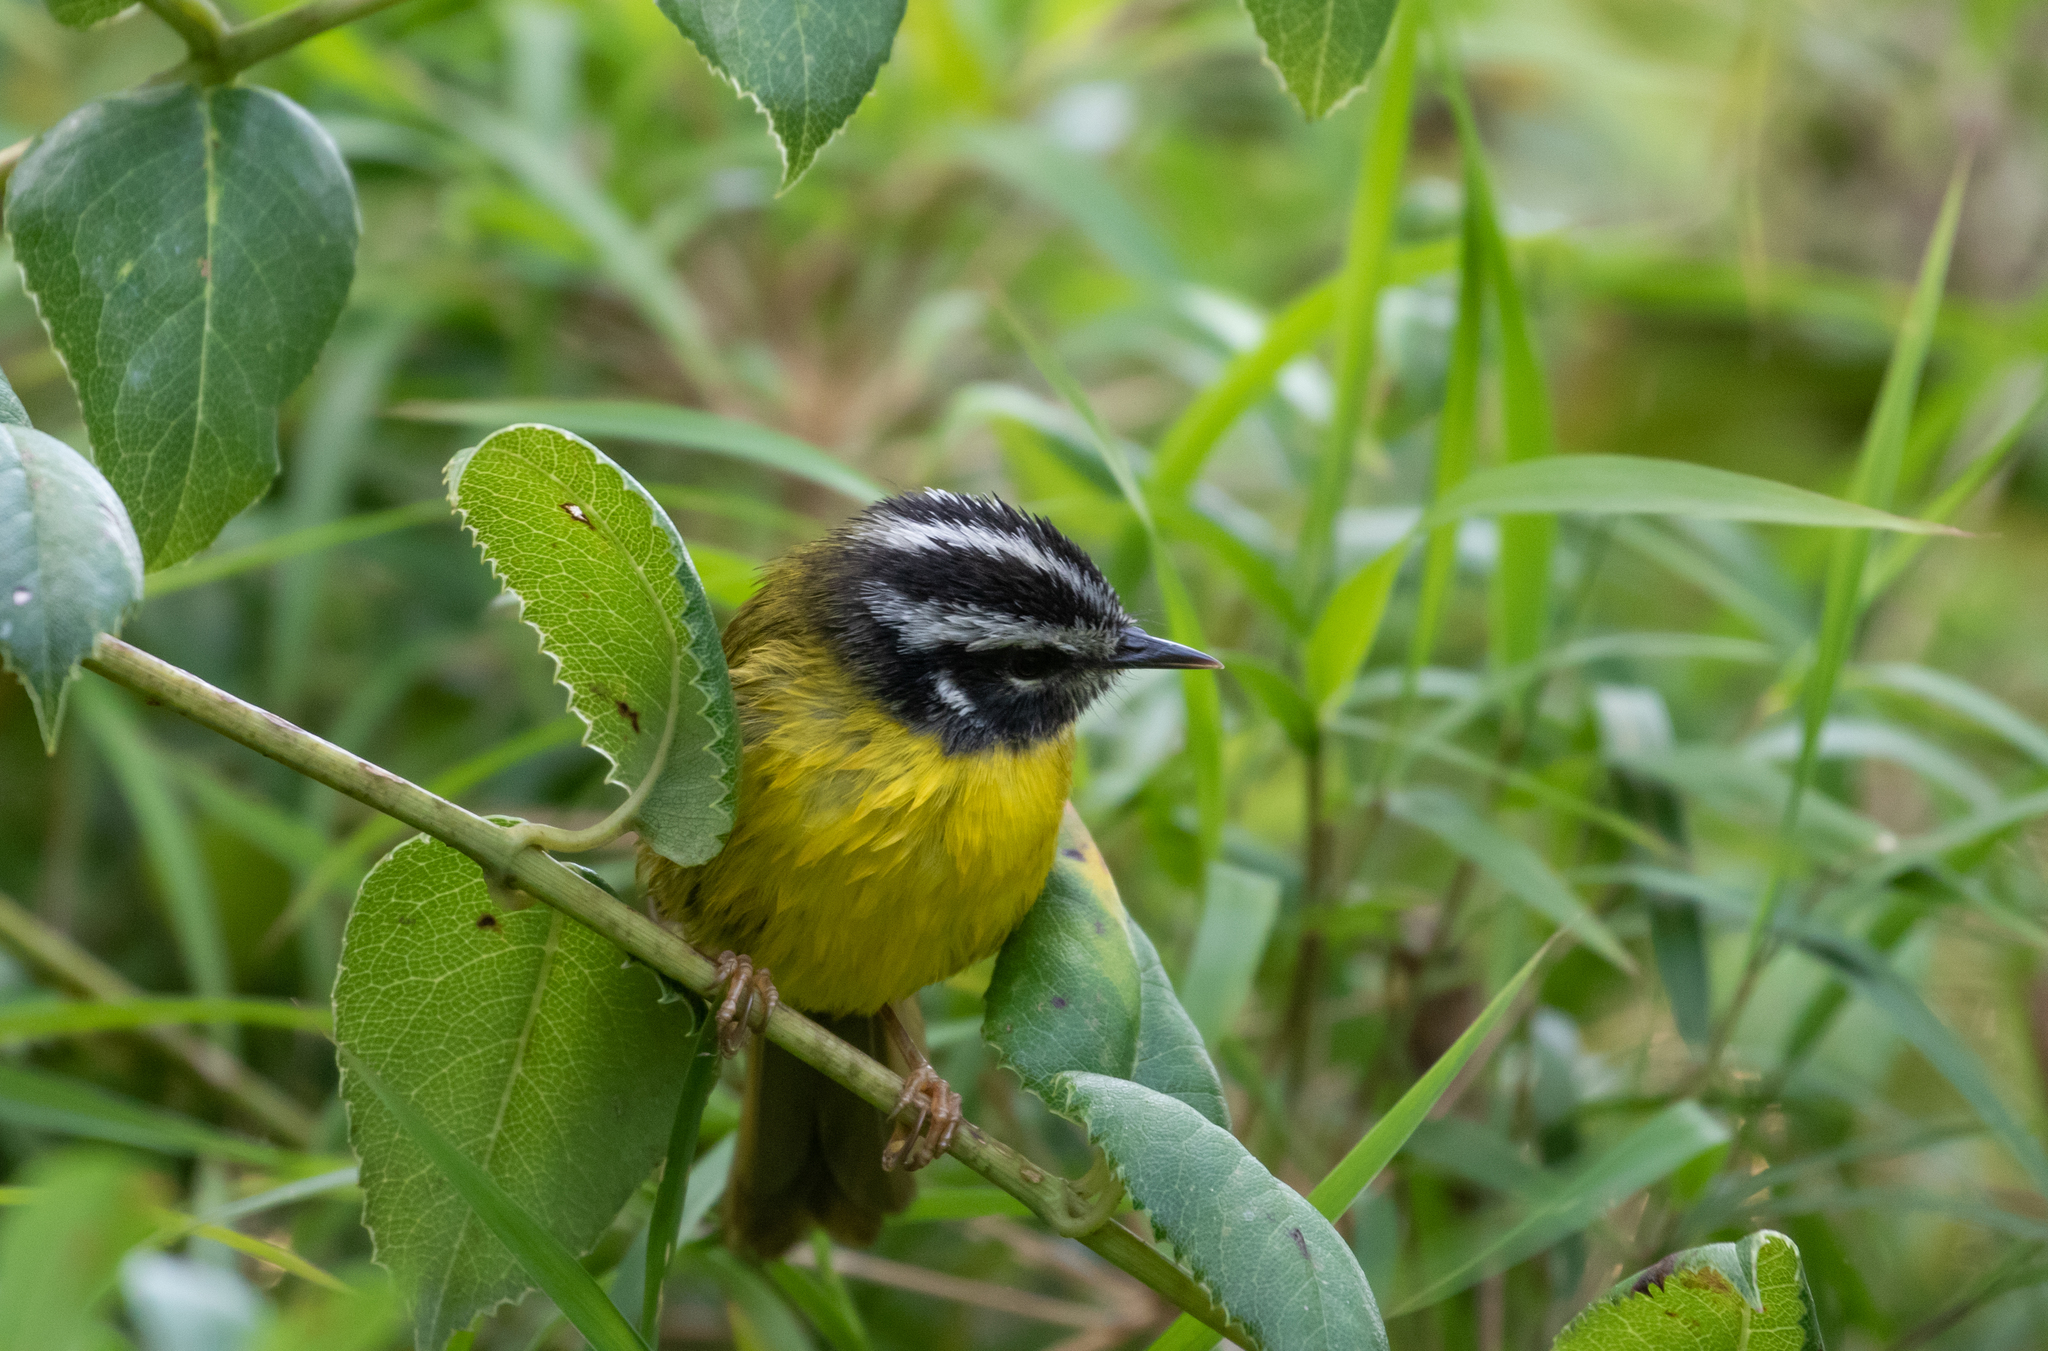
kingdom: Animalia
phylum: Chordata
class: Aves
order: Passeriformes
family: Parulidae
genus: Basileuterus
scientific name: Basileuterus basilicus
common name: Santa marta warbler
